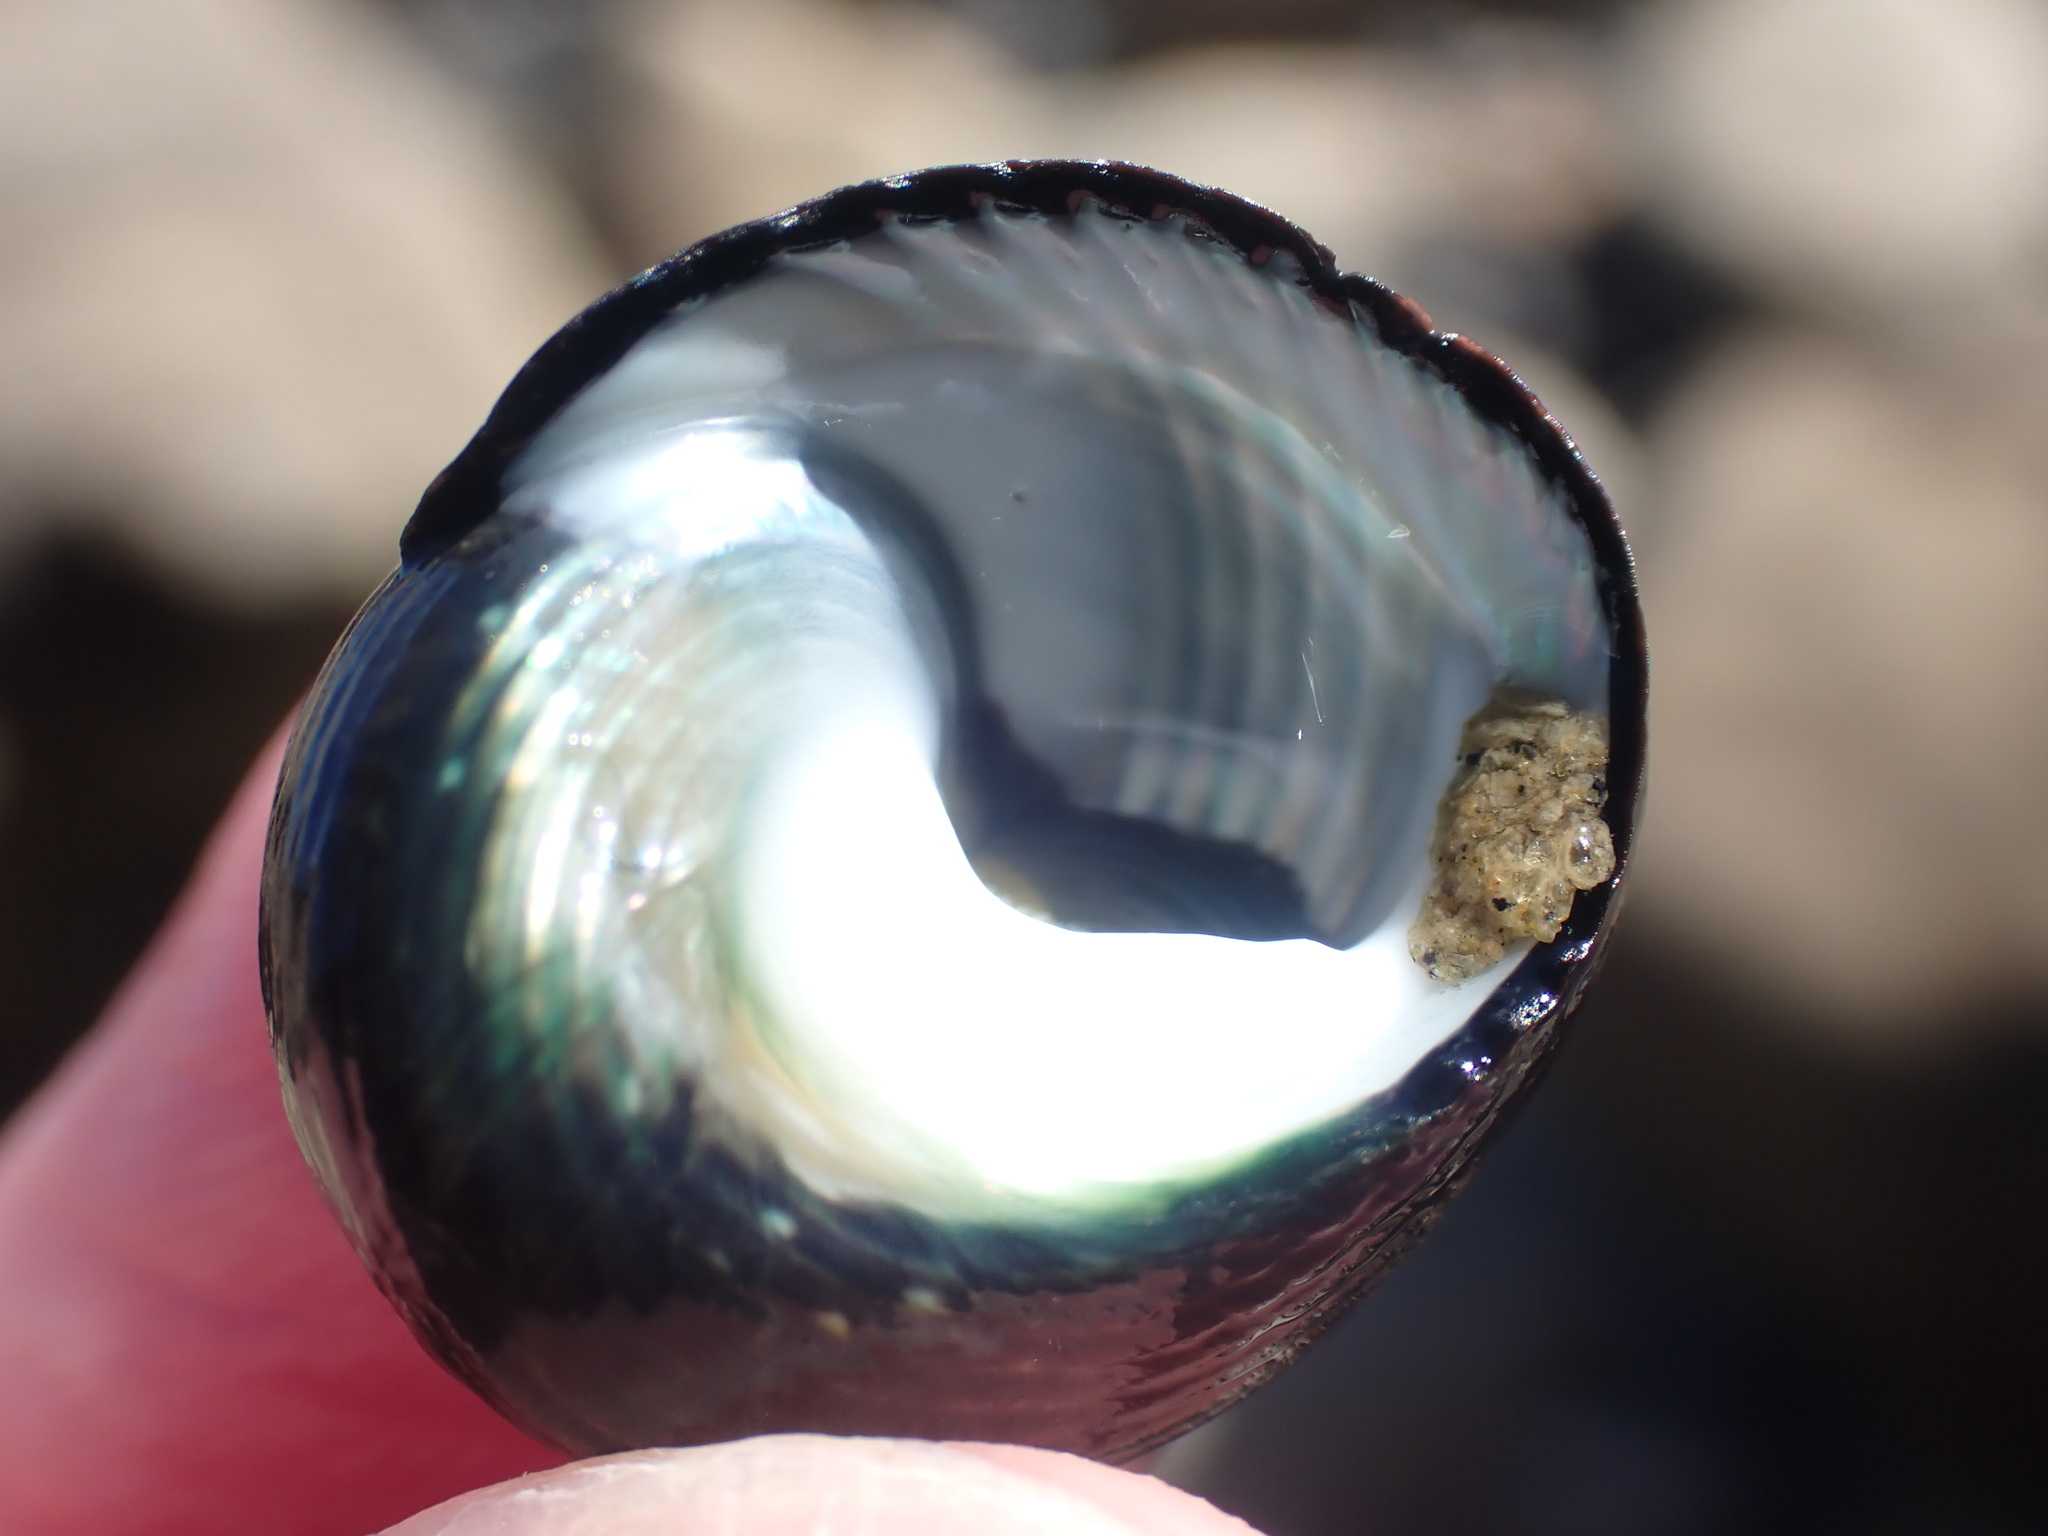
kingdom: Animalia
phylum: Mollusca
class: Gastropoda
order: Trochida
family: Trochidae
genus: Diloma
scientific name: Diloma zelandicum
